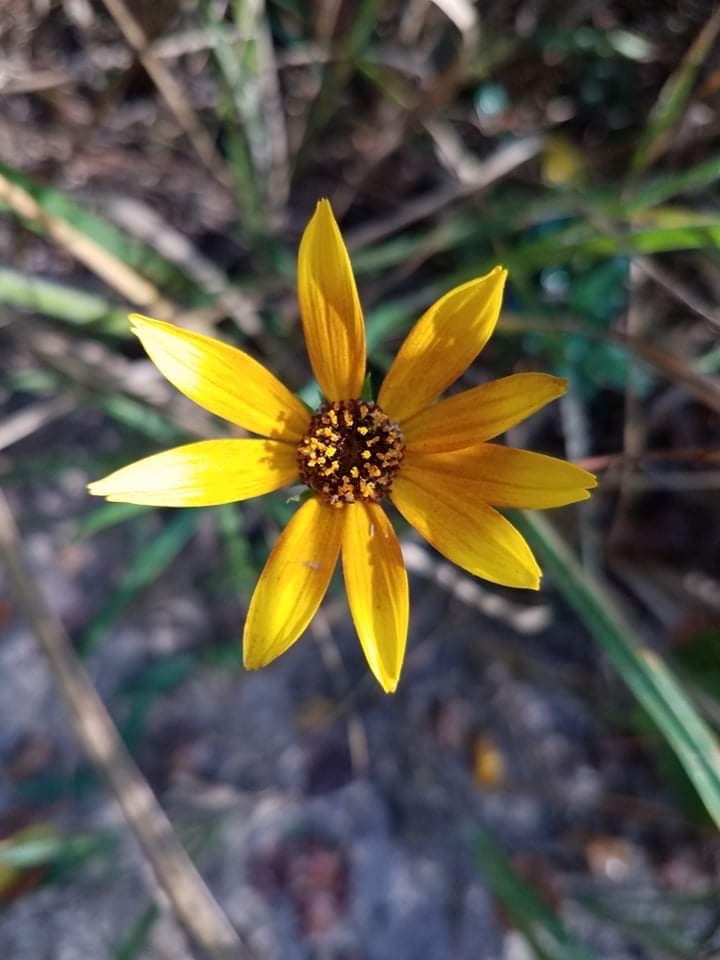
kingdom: Plantae
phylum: Tracheophyta
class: Magnoliopsida
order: Asterales
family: Asteraceae
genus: Helianthus
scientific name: Helianthus angustifolius
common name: Swamp sunflower
